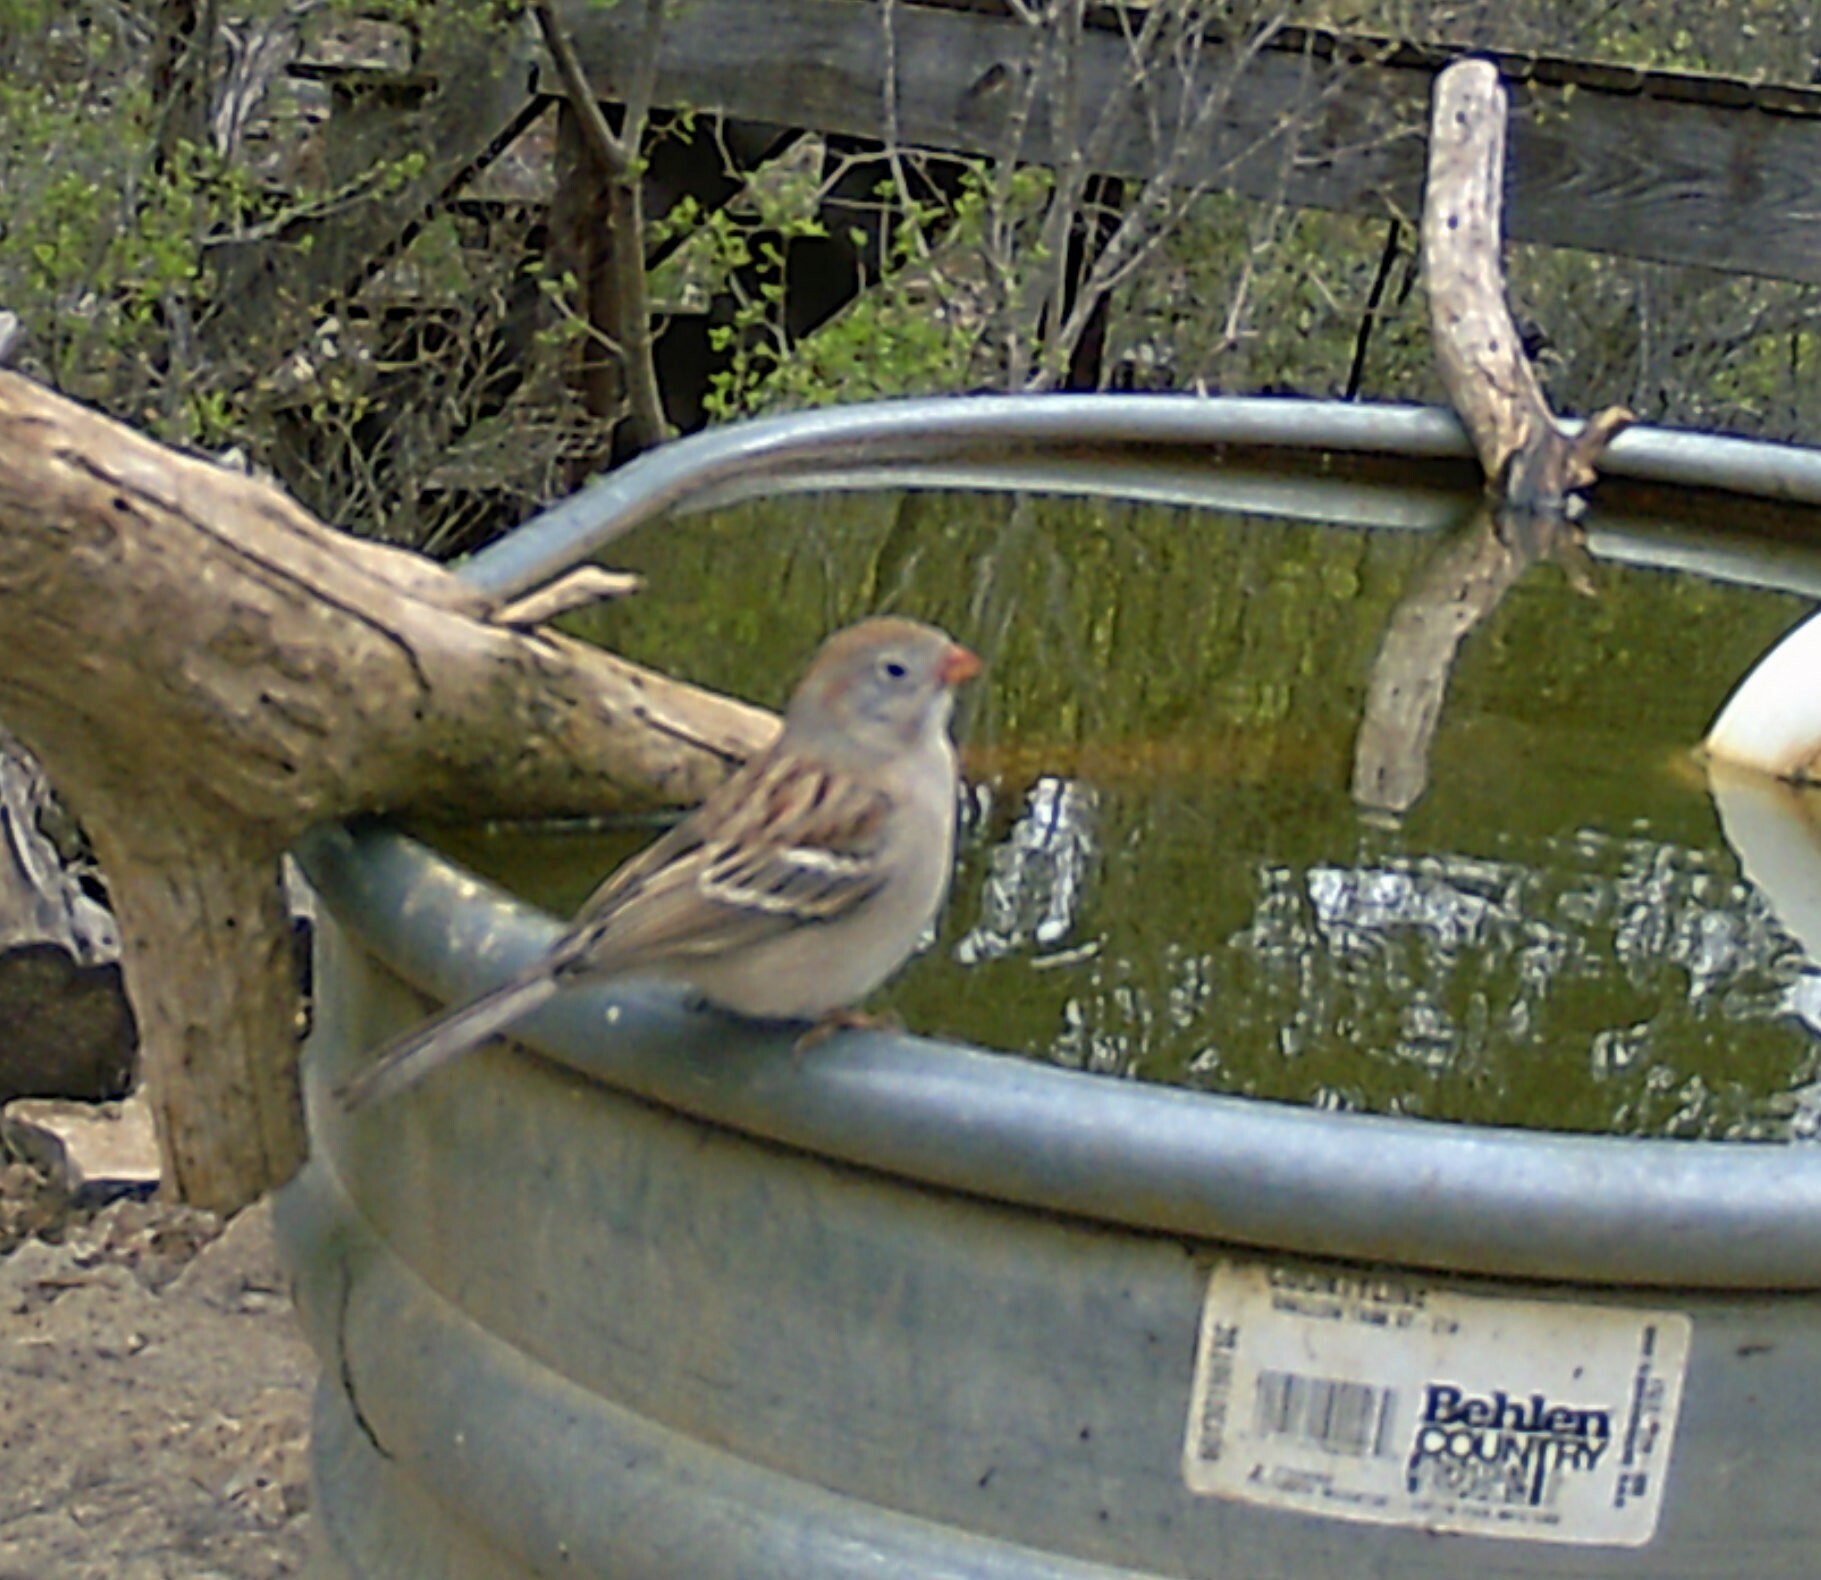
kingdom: Animalia
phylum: Chordata
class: Aves
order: Passeriformes
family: Passerellidae
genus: Spizella
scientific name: Spizella pusilla
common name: Field sparrow
